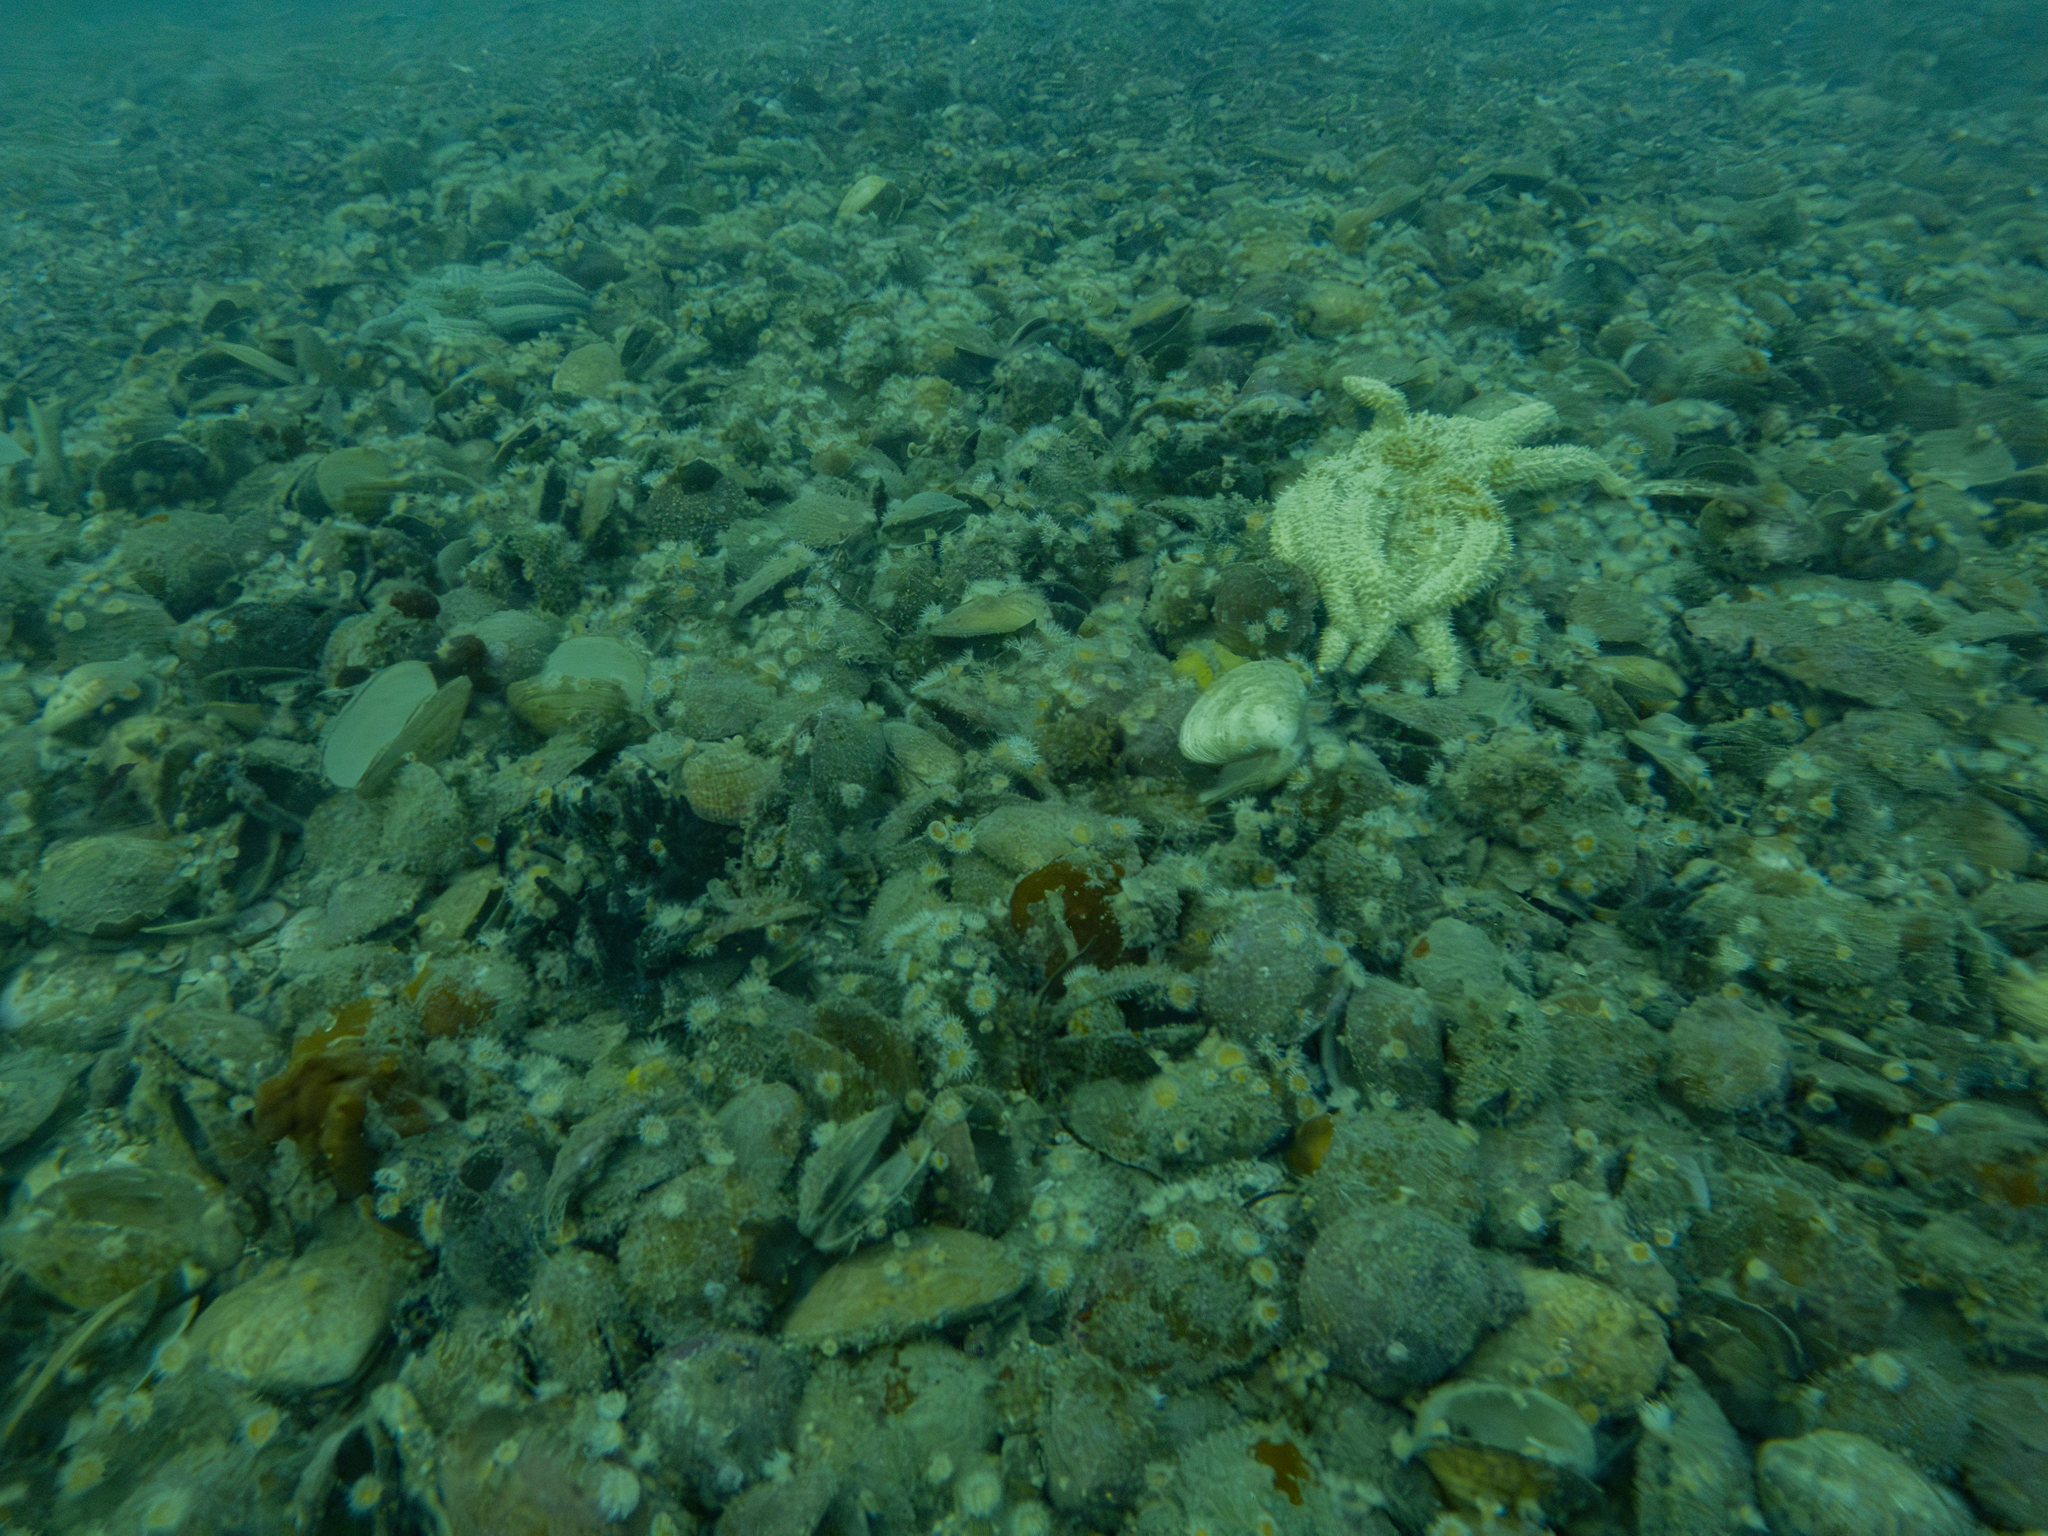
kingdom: Animalia
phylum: Mollusca
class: Bivalvia
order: Arcida
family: Glycymerididae
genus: Tucetona
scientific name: Tucetona laticostata
